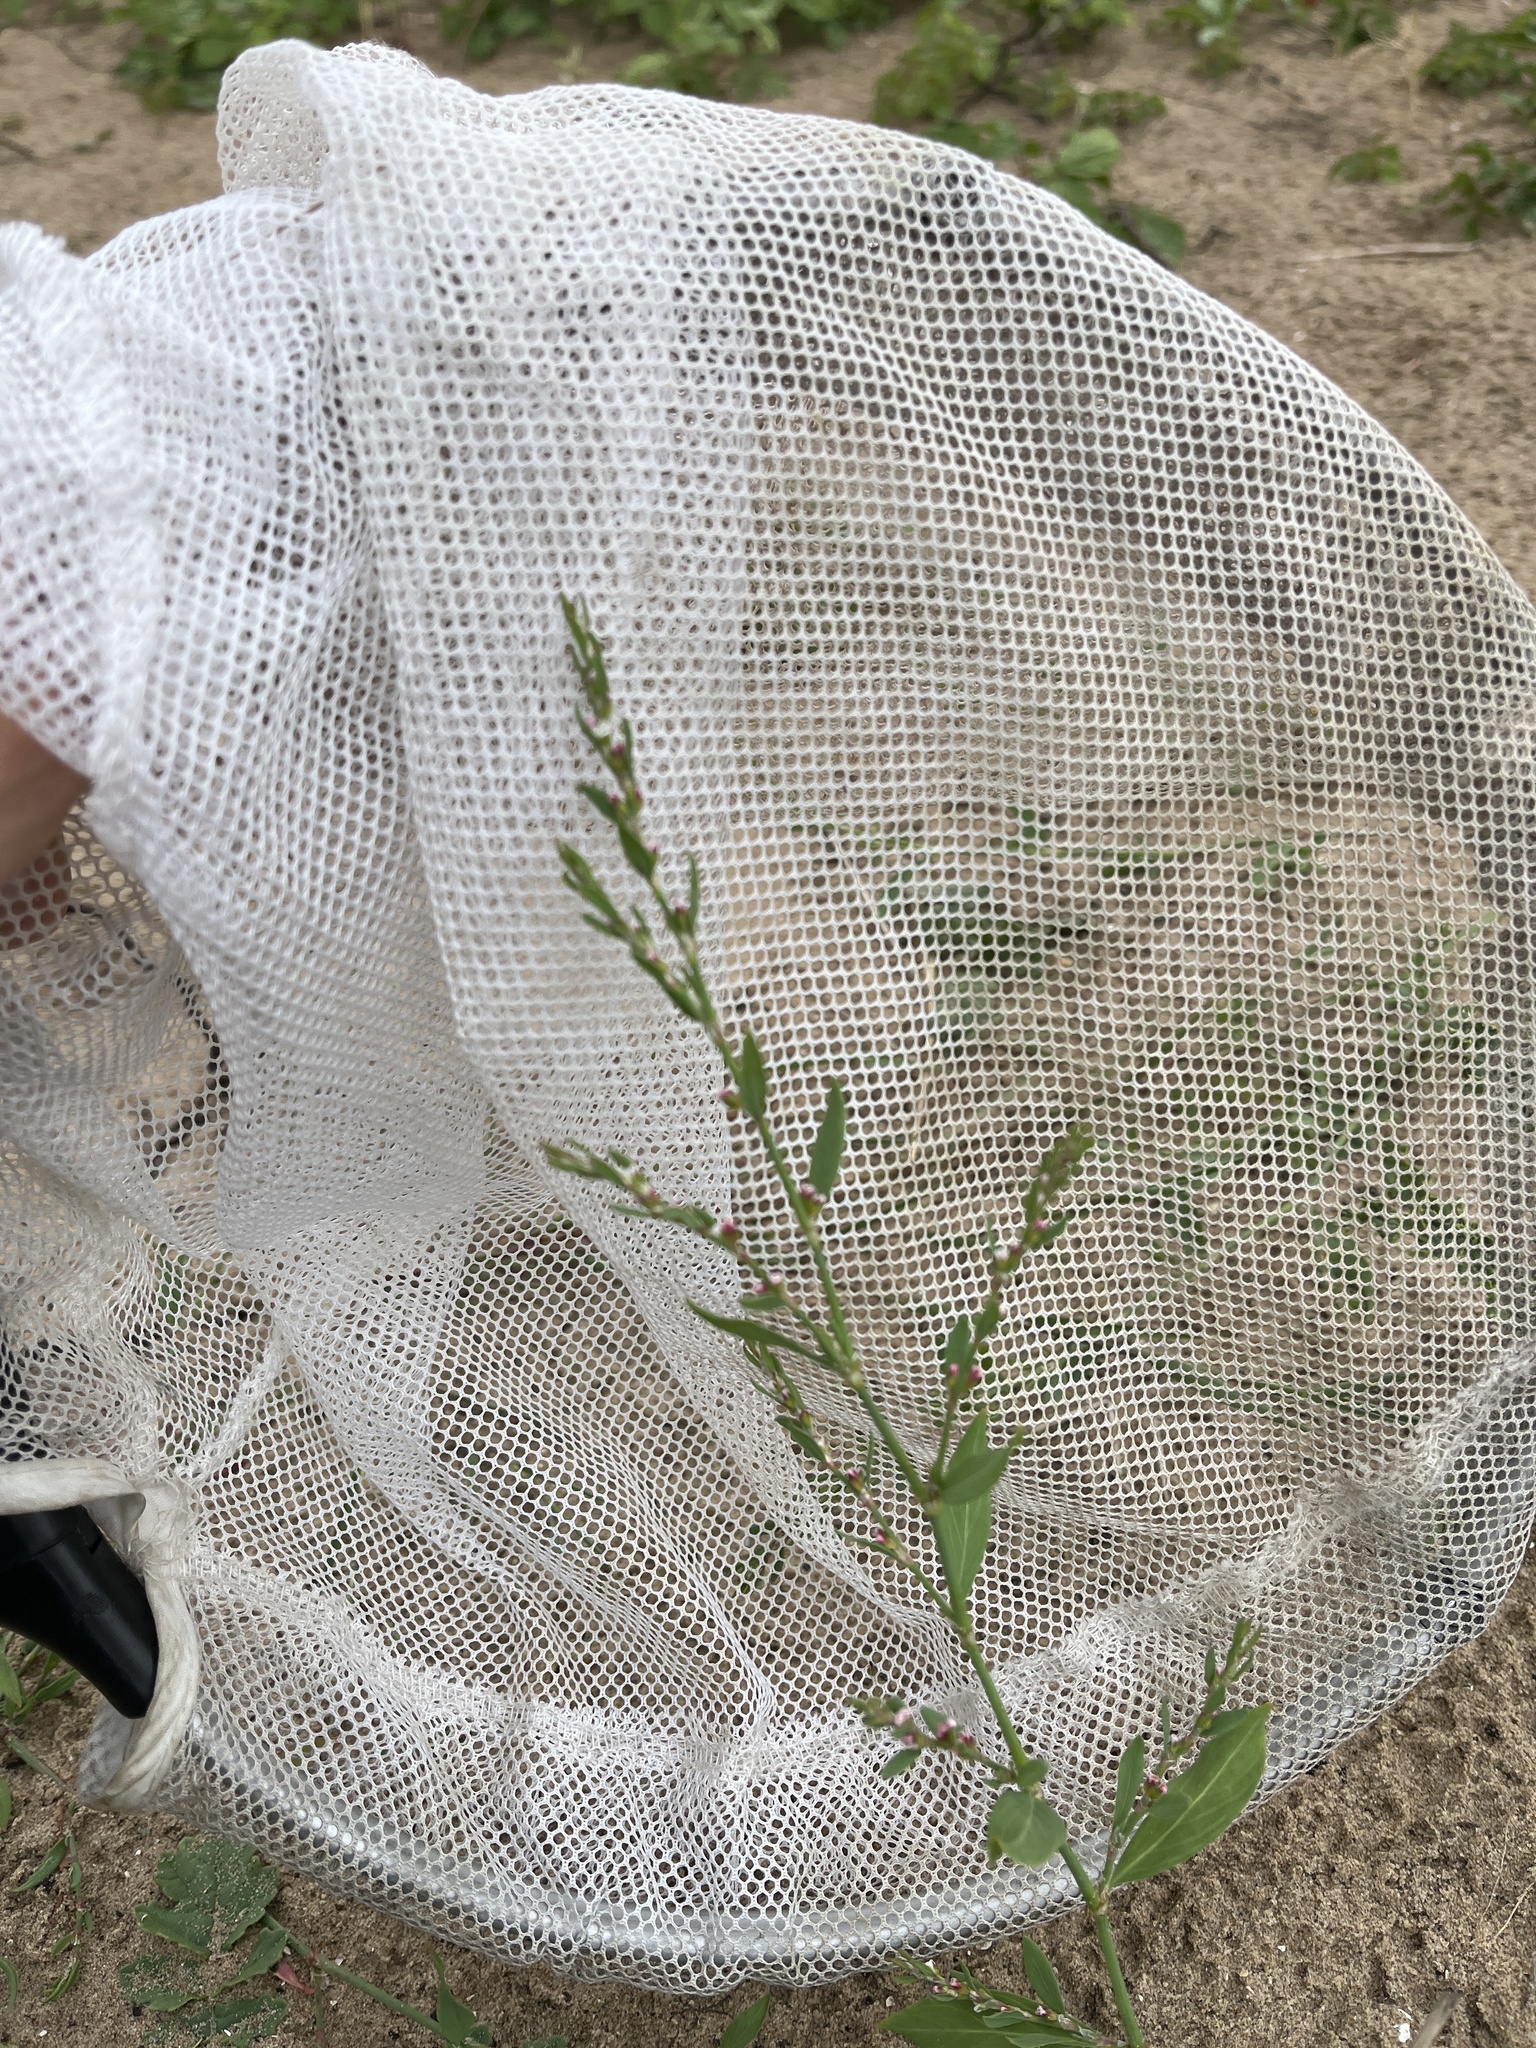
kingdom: Plantae
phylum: Tracheophyta
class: Magnoliopsida
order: Caryophyllales
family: Polygonaceae
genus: Polygonum
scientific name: Polygonum aviculare
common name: Prostrate knotweed
